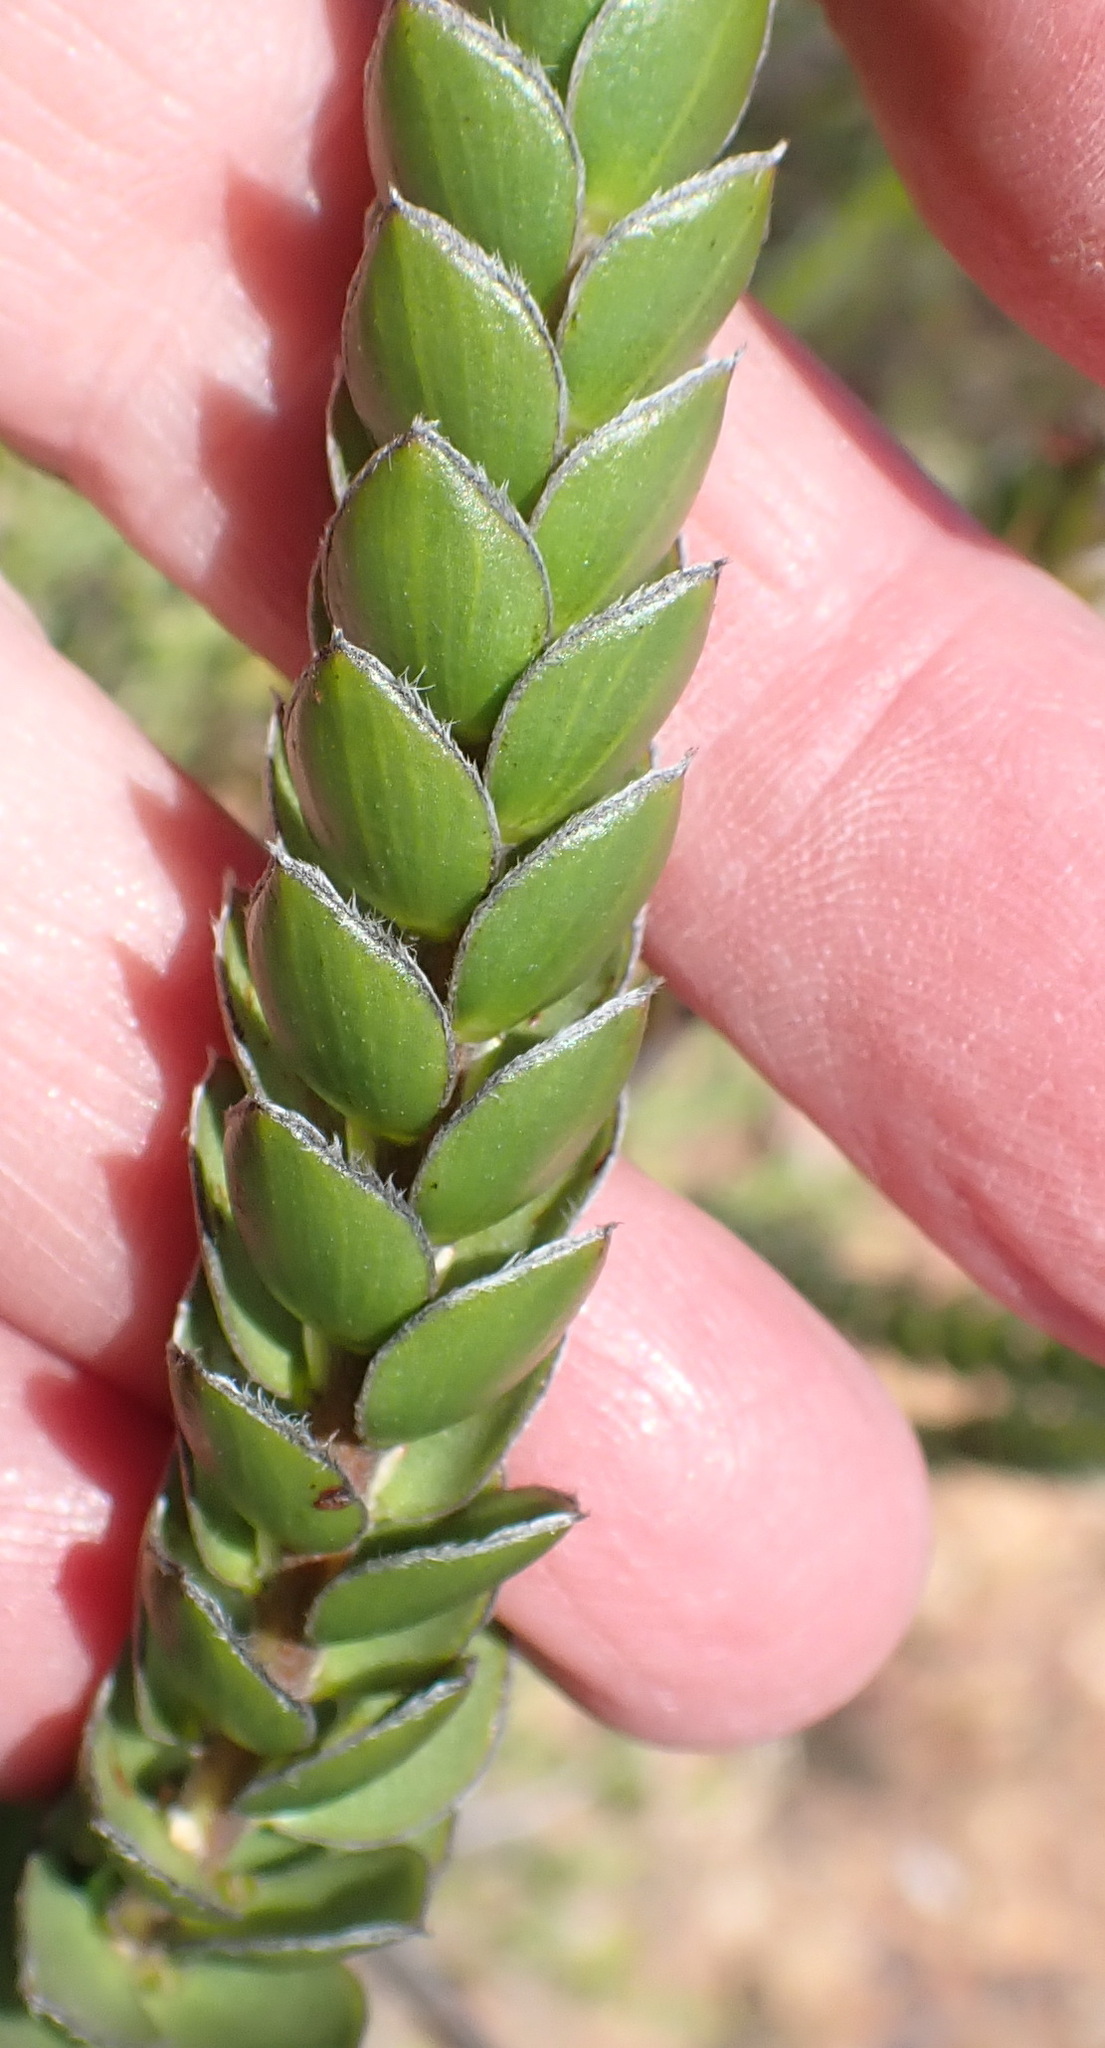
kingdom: Plantae
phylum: Tracheophyta
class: Magnoliopsida
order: Malvales
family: Thymelaeaceae
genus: Struthiola
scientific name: Struthiola argentea
